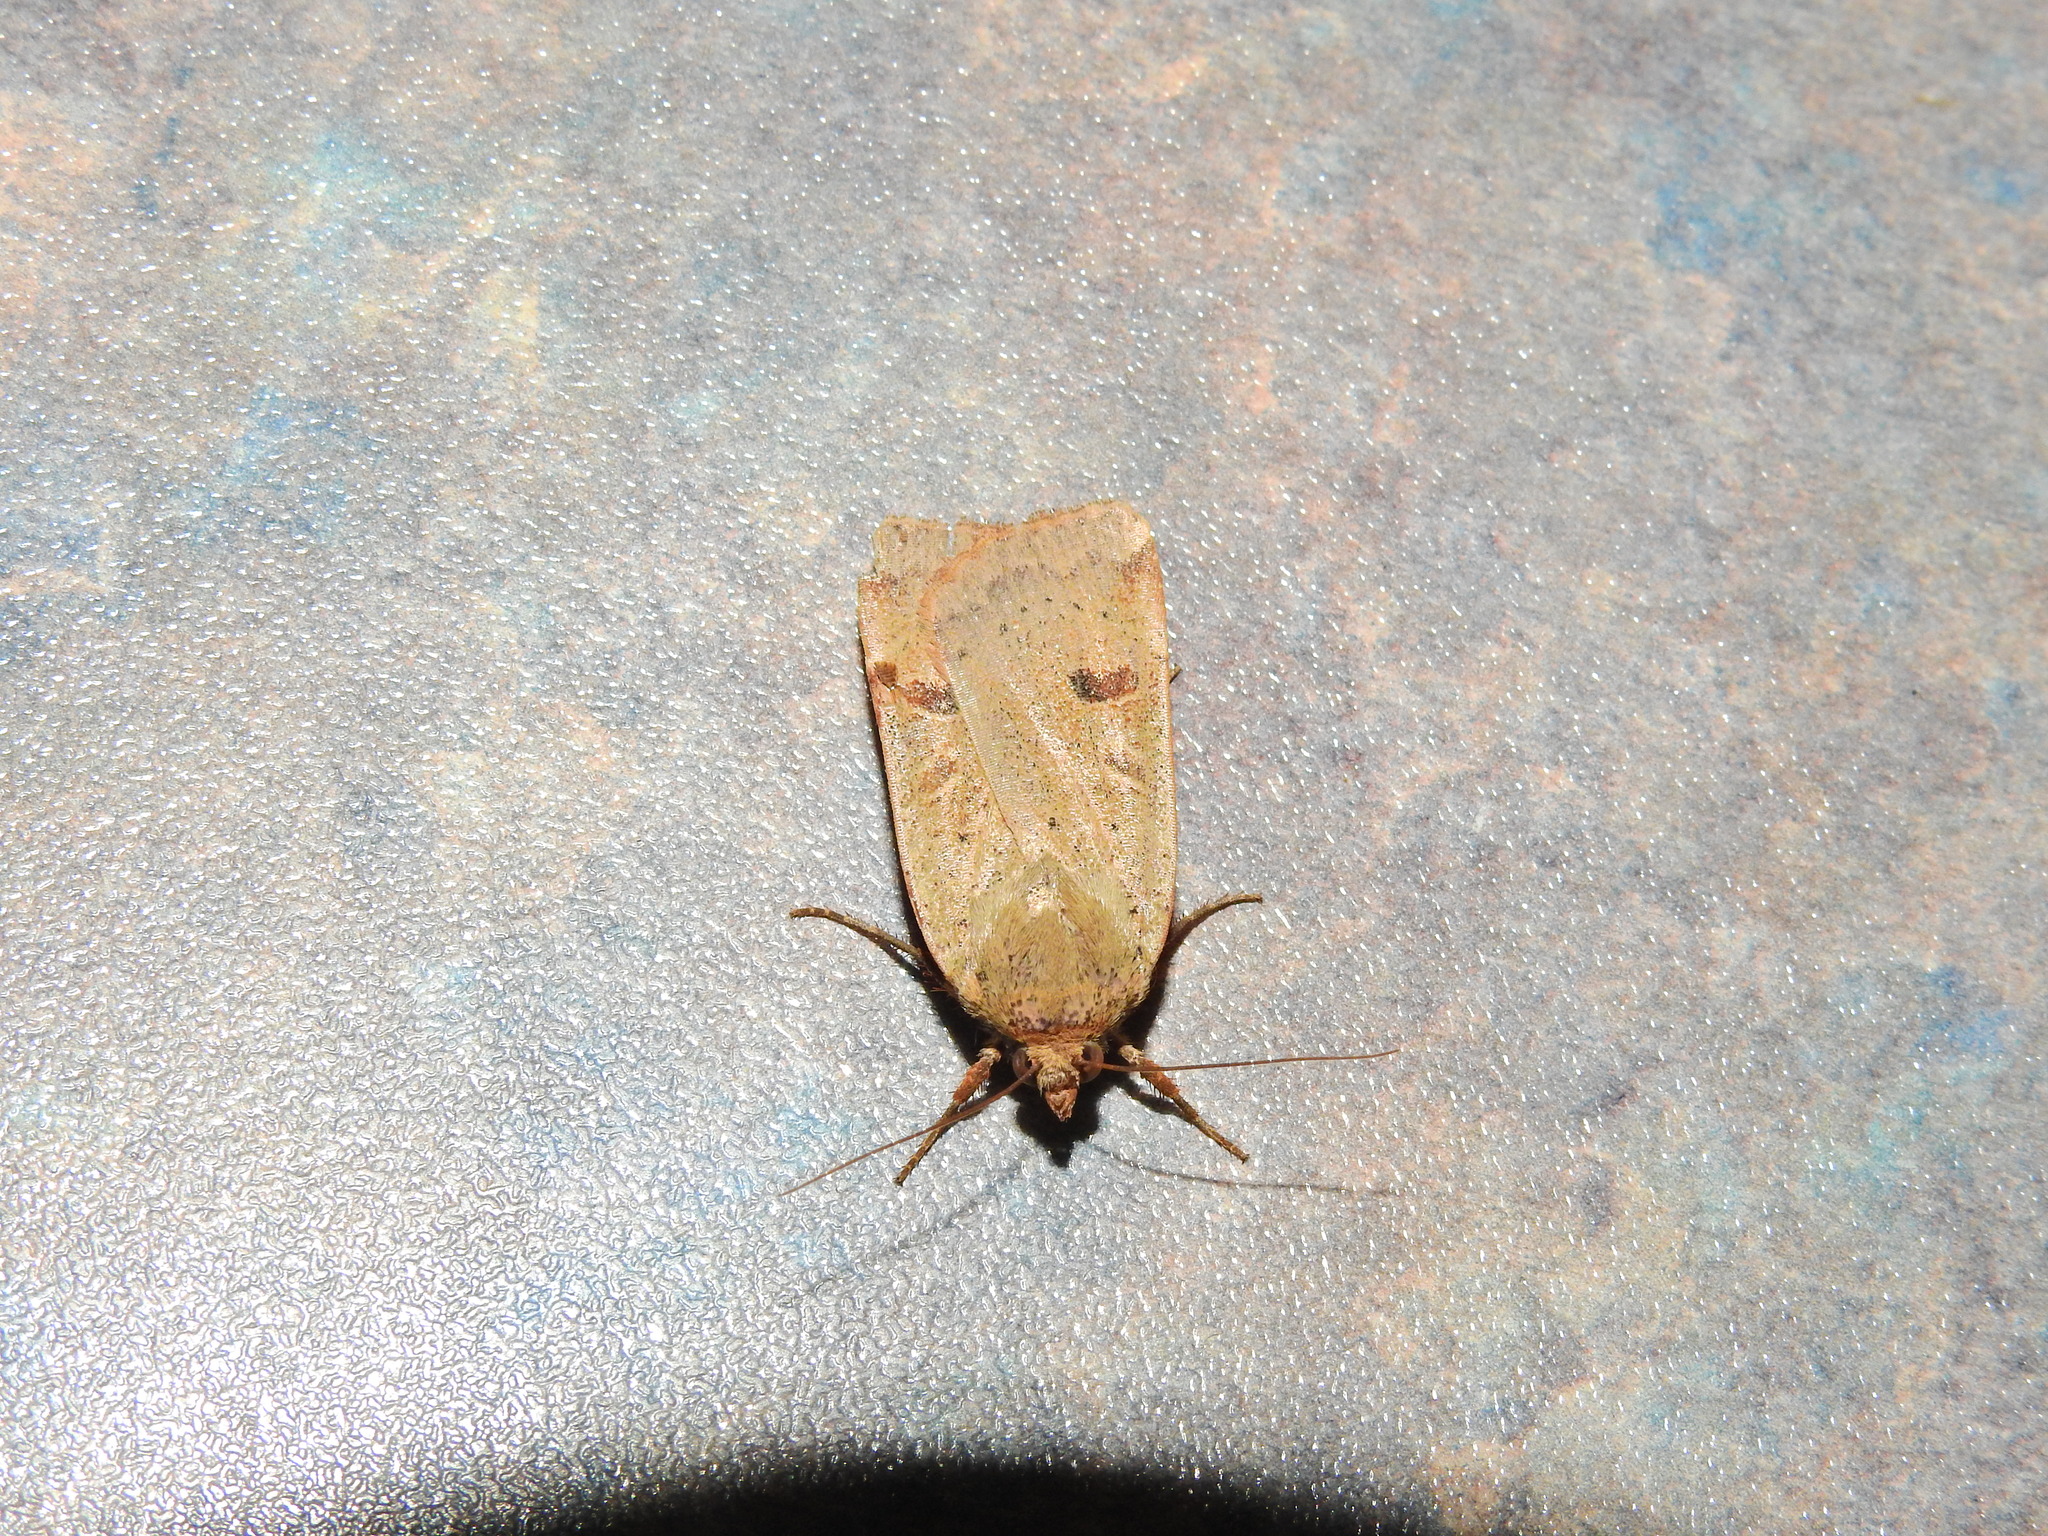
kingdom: Animalia
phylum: Arthropoda
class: Insecta
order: Lepidoptera
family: Noctuidae
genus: Noctua
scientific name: Noctua comes
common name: Lesser yellow underwing
